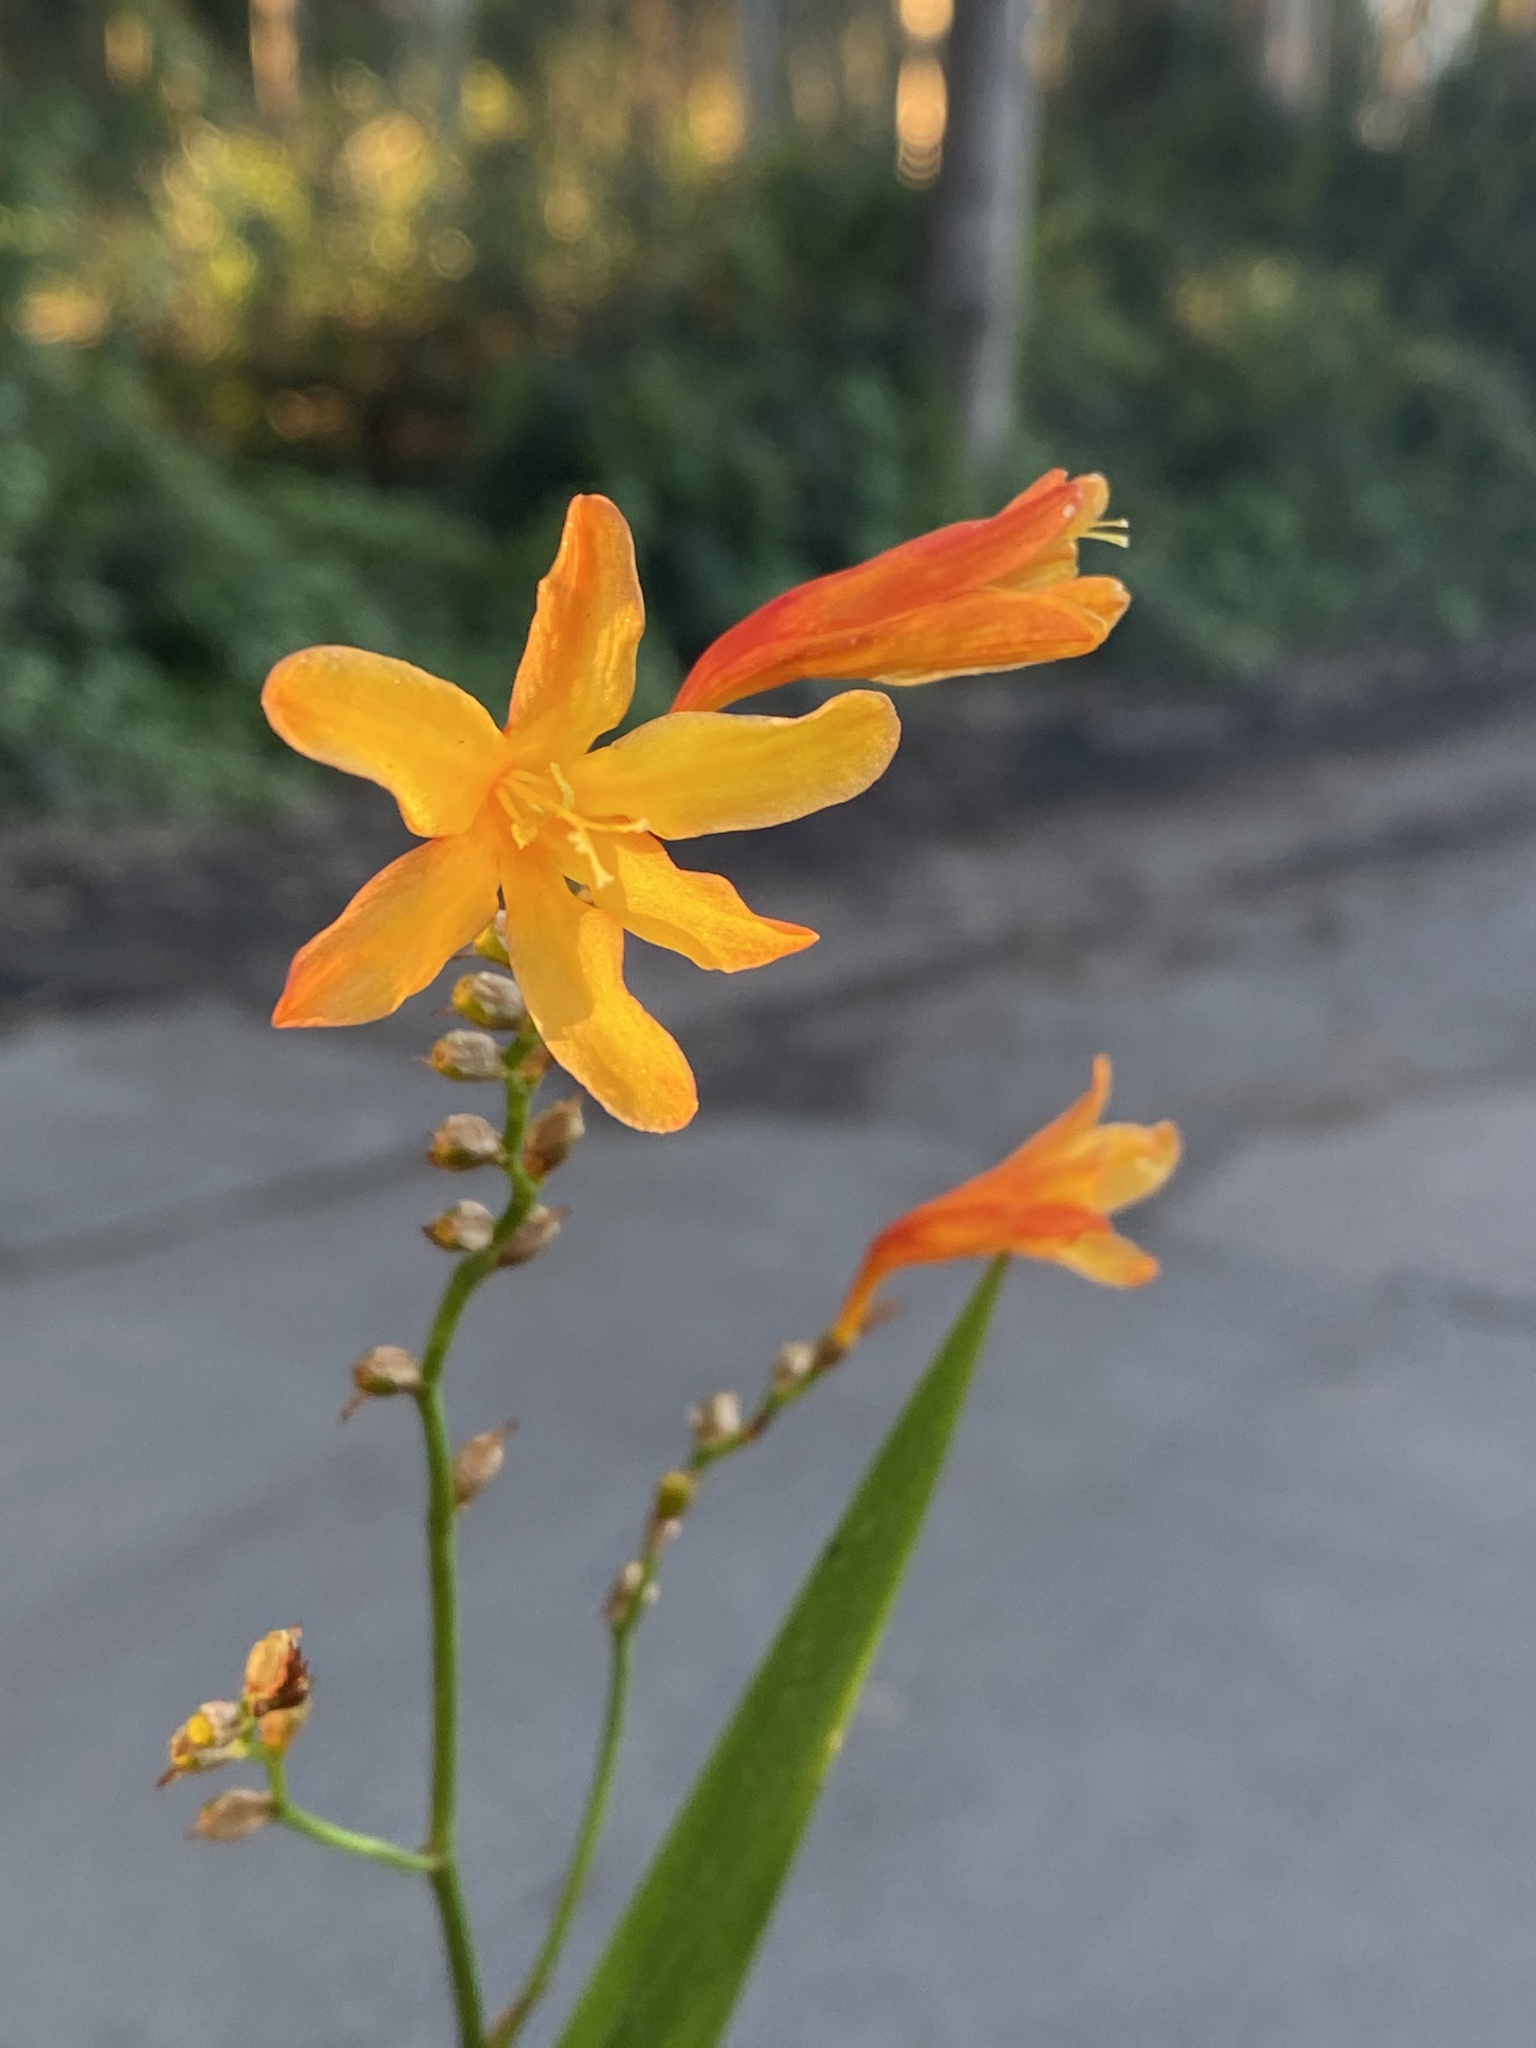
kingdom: Plantae
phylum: Tracheophyta
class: Liliopsida
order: Asparagales
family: Iridaceae
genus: Crocosmia
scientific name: Crocosmia crocosmiiflora
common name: Montbretia
